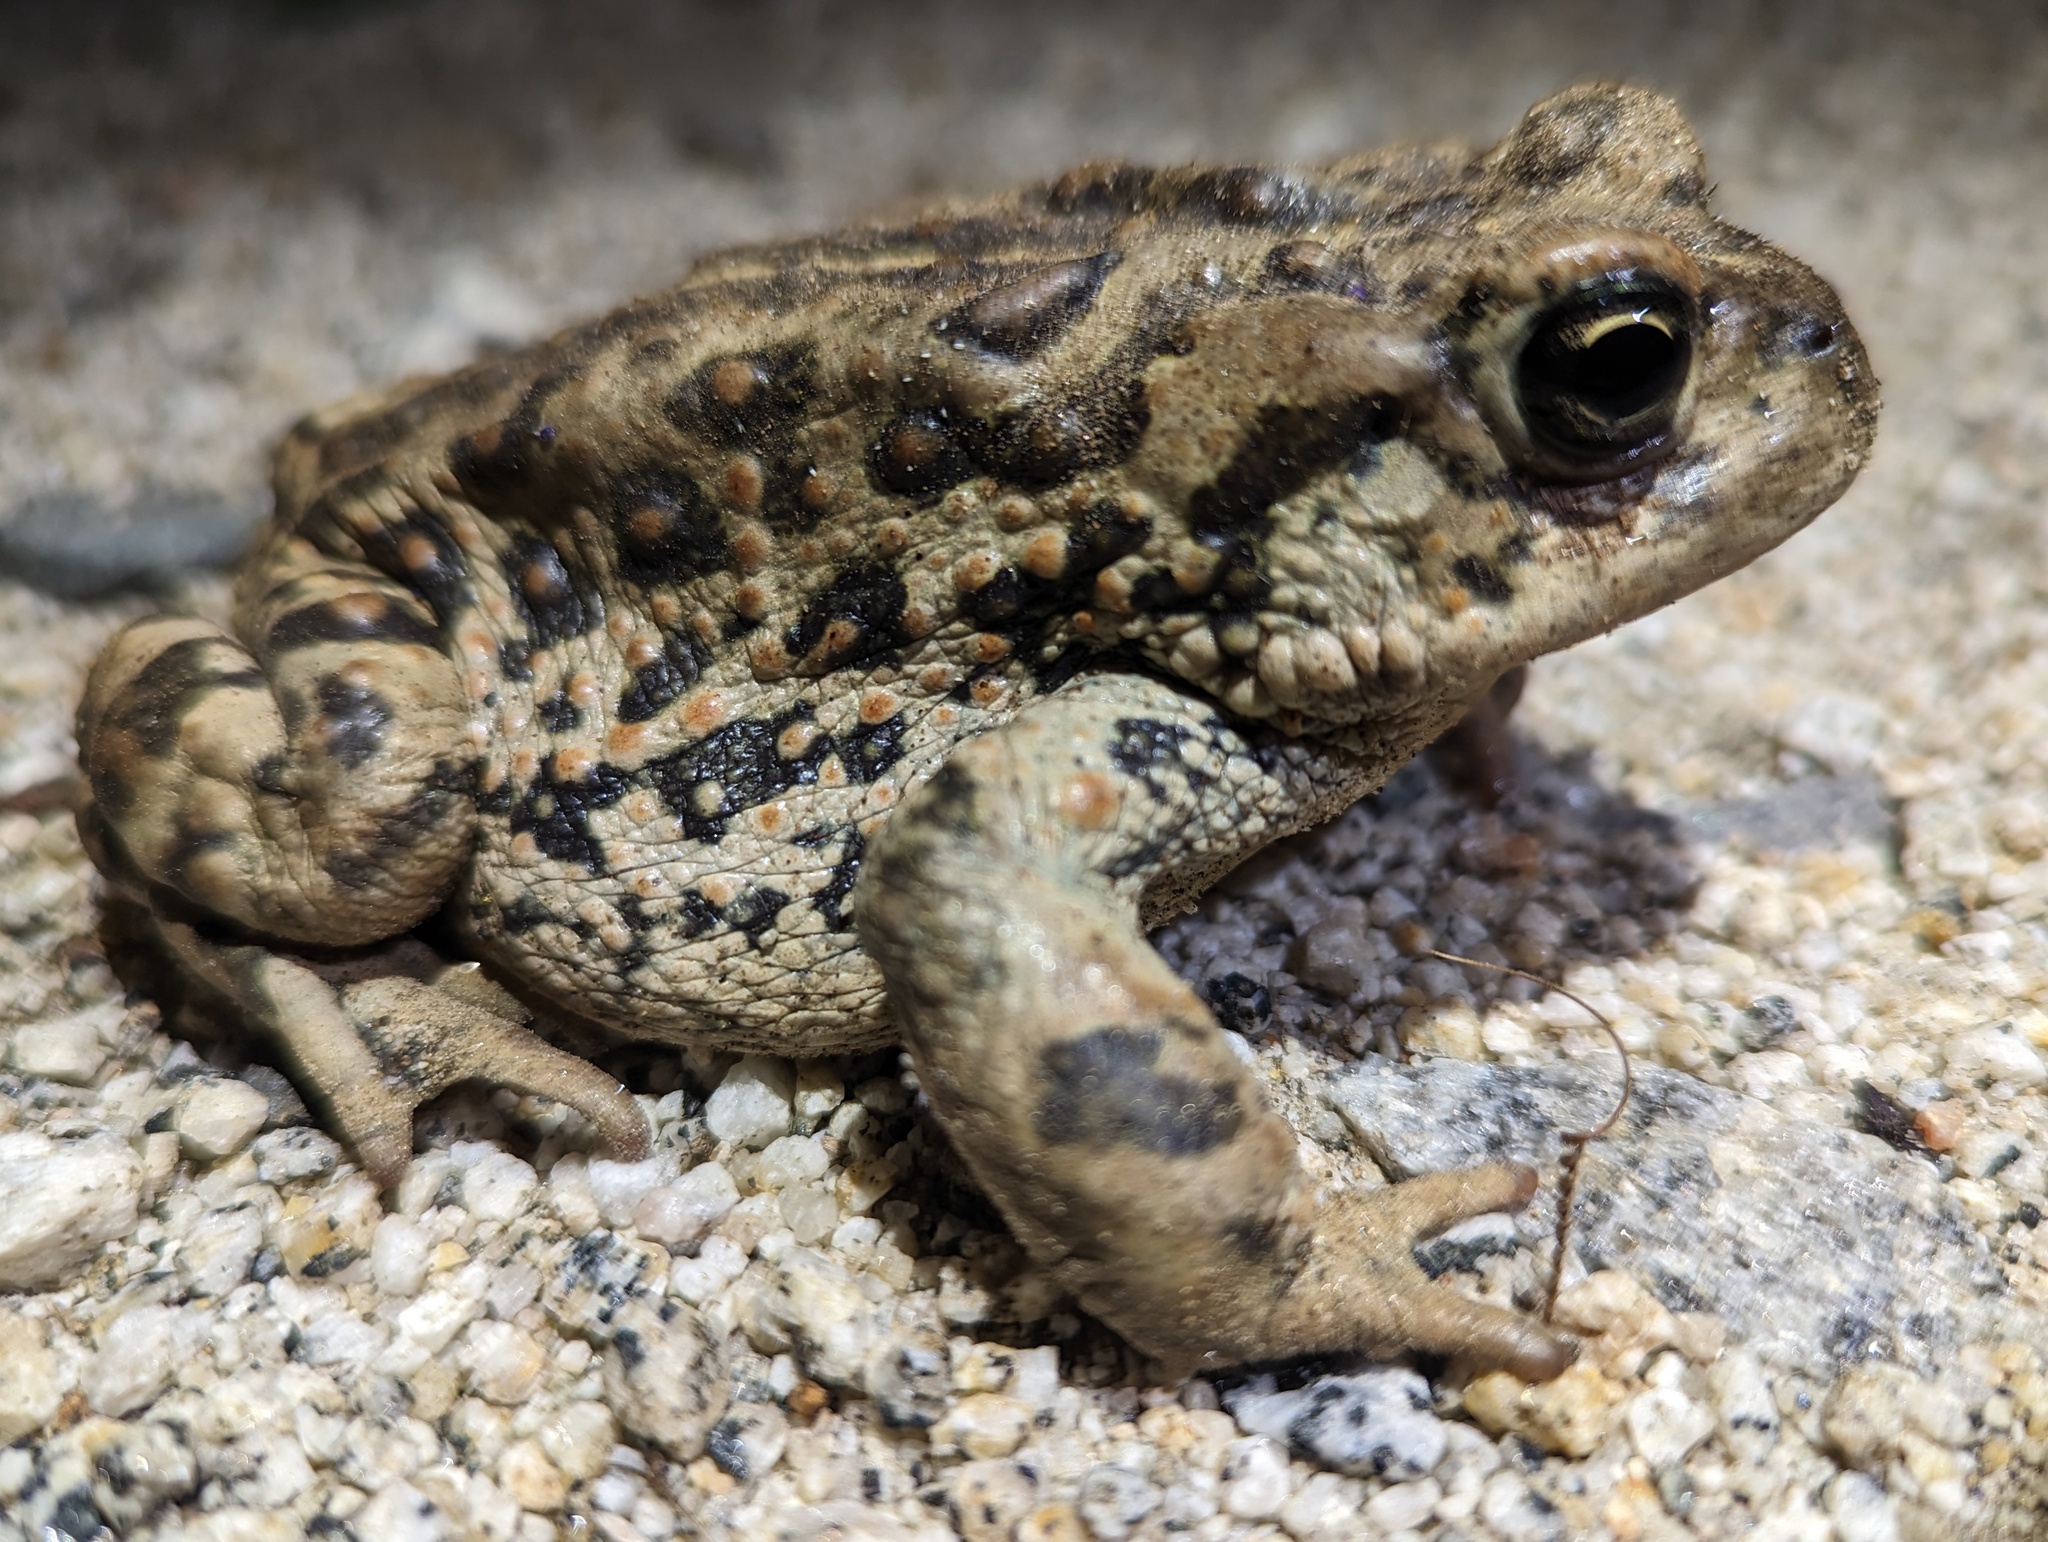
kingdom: Animalia
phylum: Chordata
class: Amphibia
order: Anura
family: Bufonidae
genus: Anaxyrus
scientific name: Anaxyrus boreas
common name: Western toad
